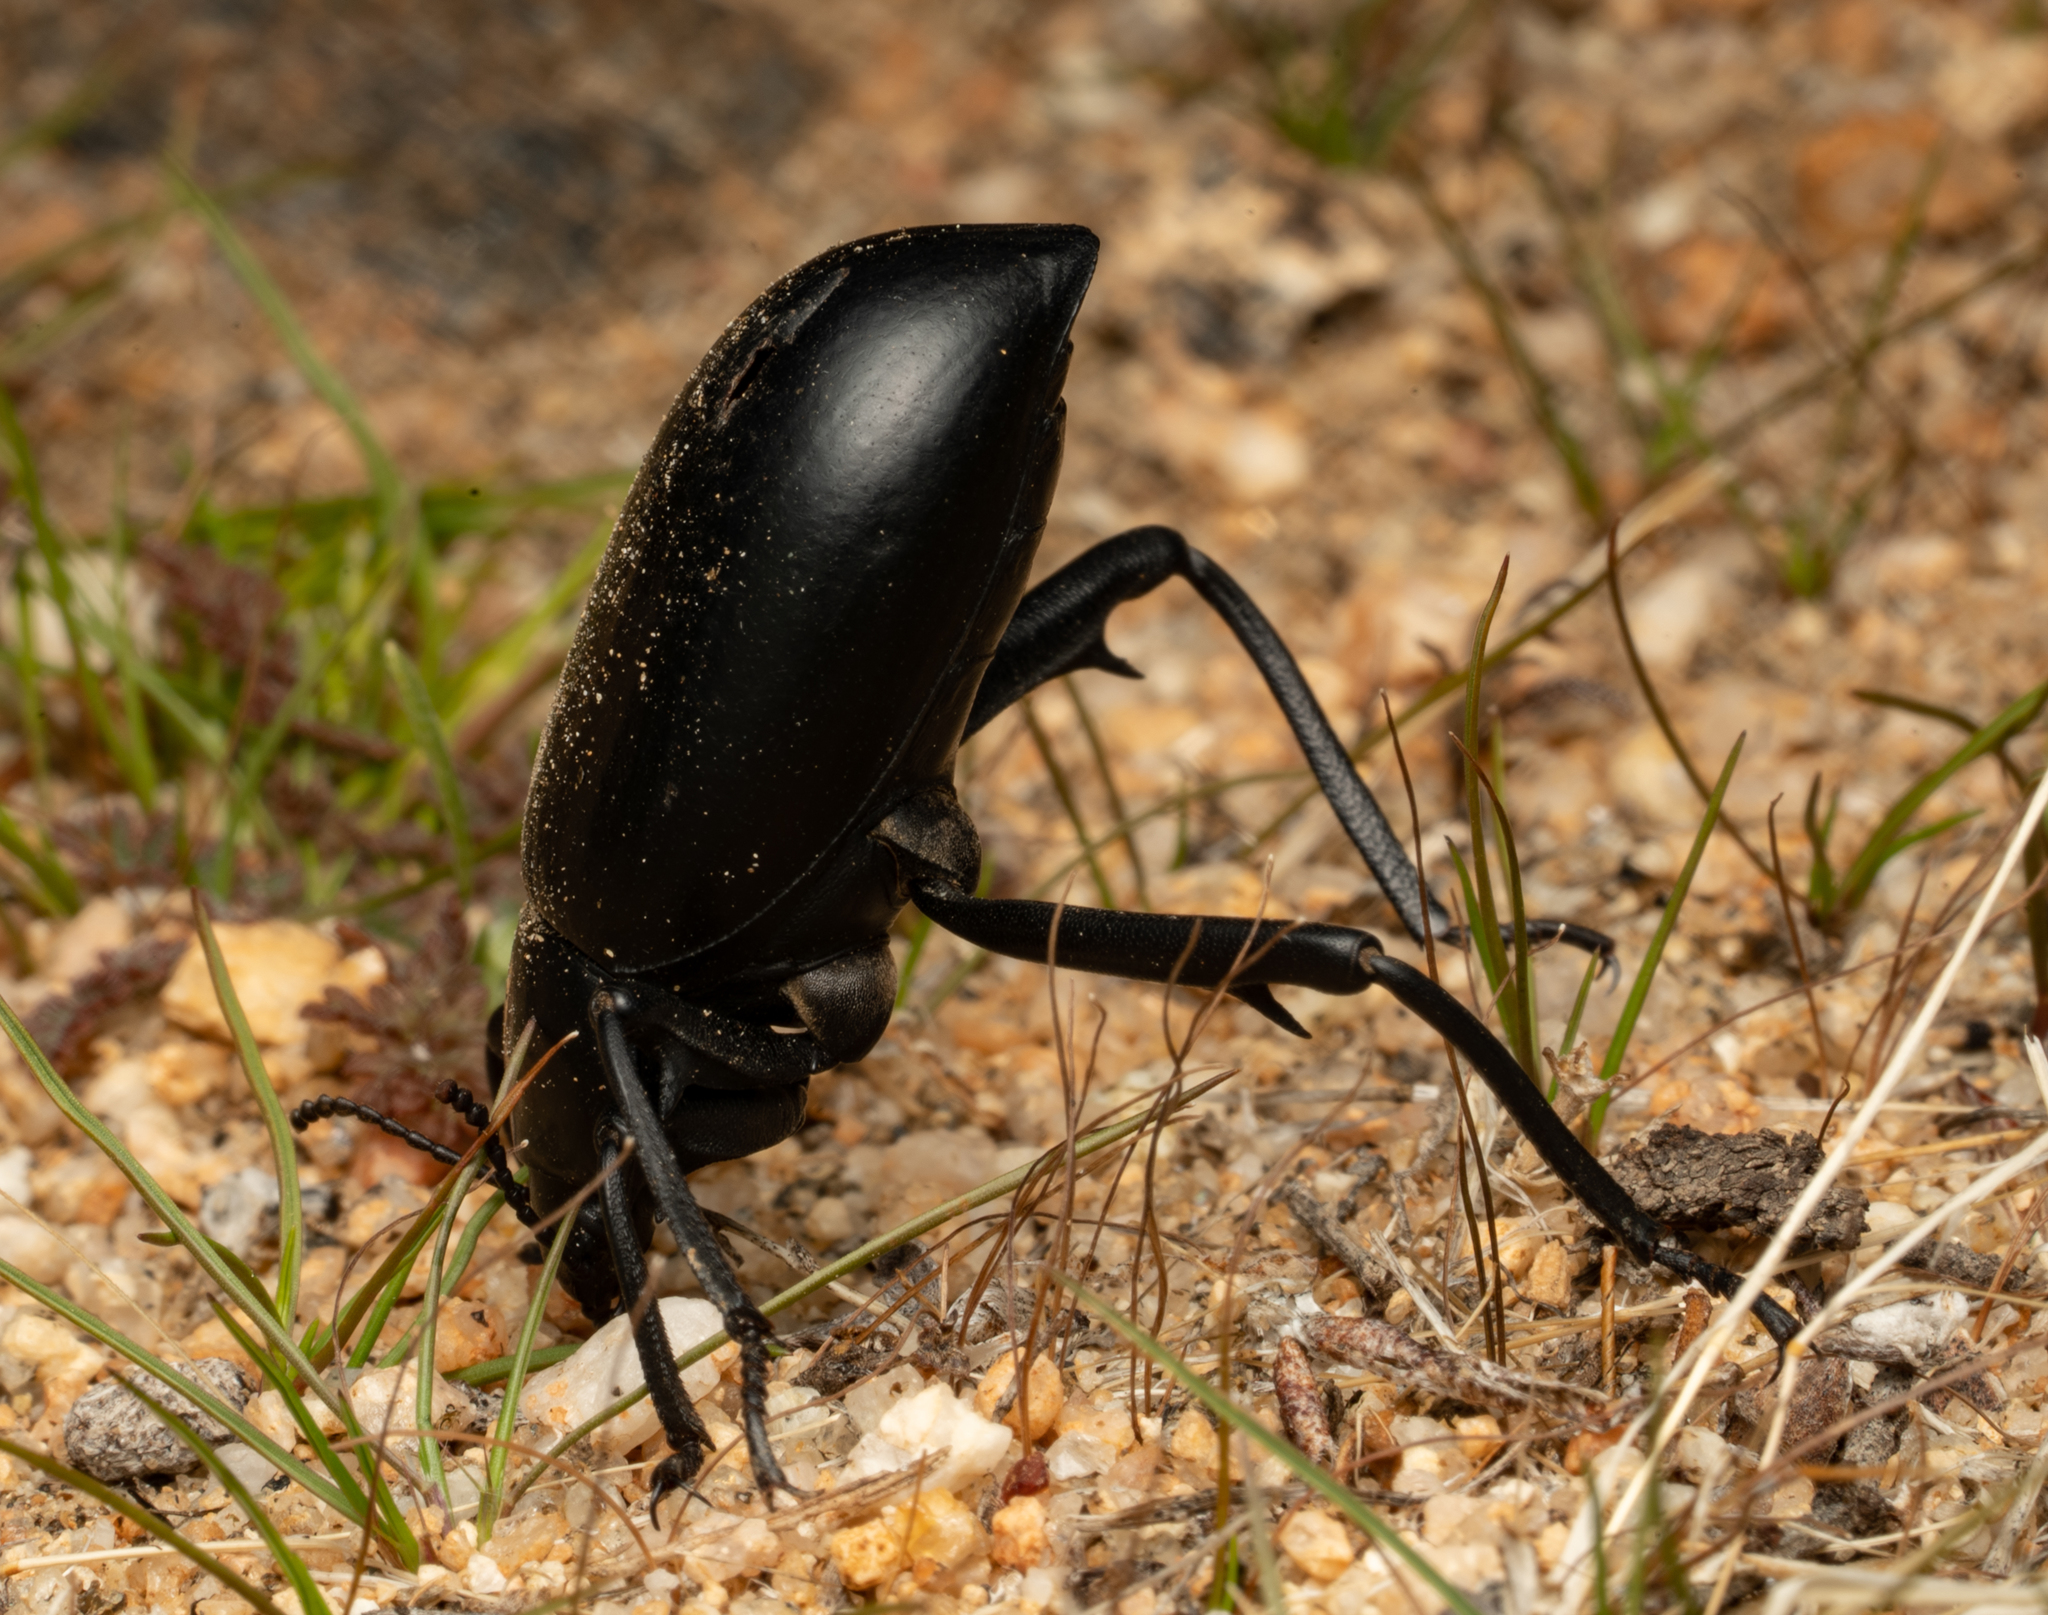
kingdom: Animalia
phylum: Arthropoda
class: Insecta
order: Coleoptera
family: Tenebrionidae
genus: Eleodes
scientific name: Eleodes armata
